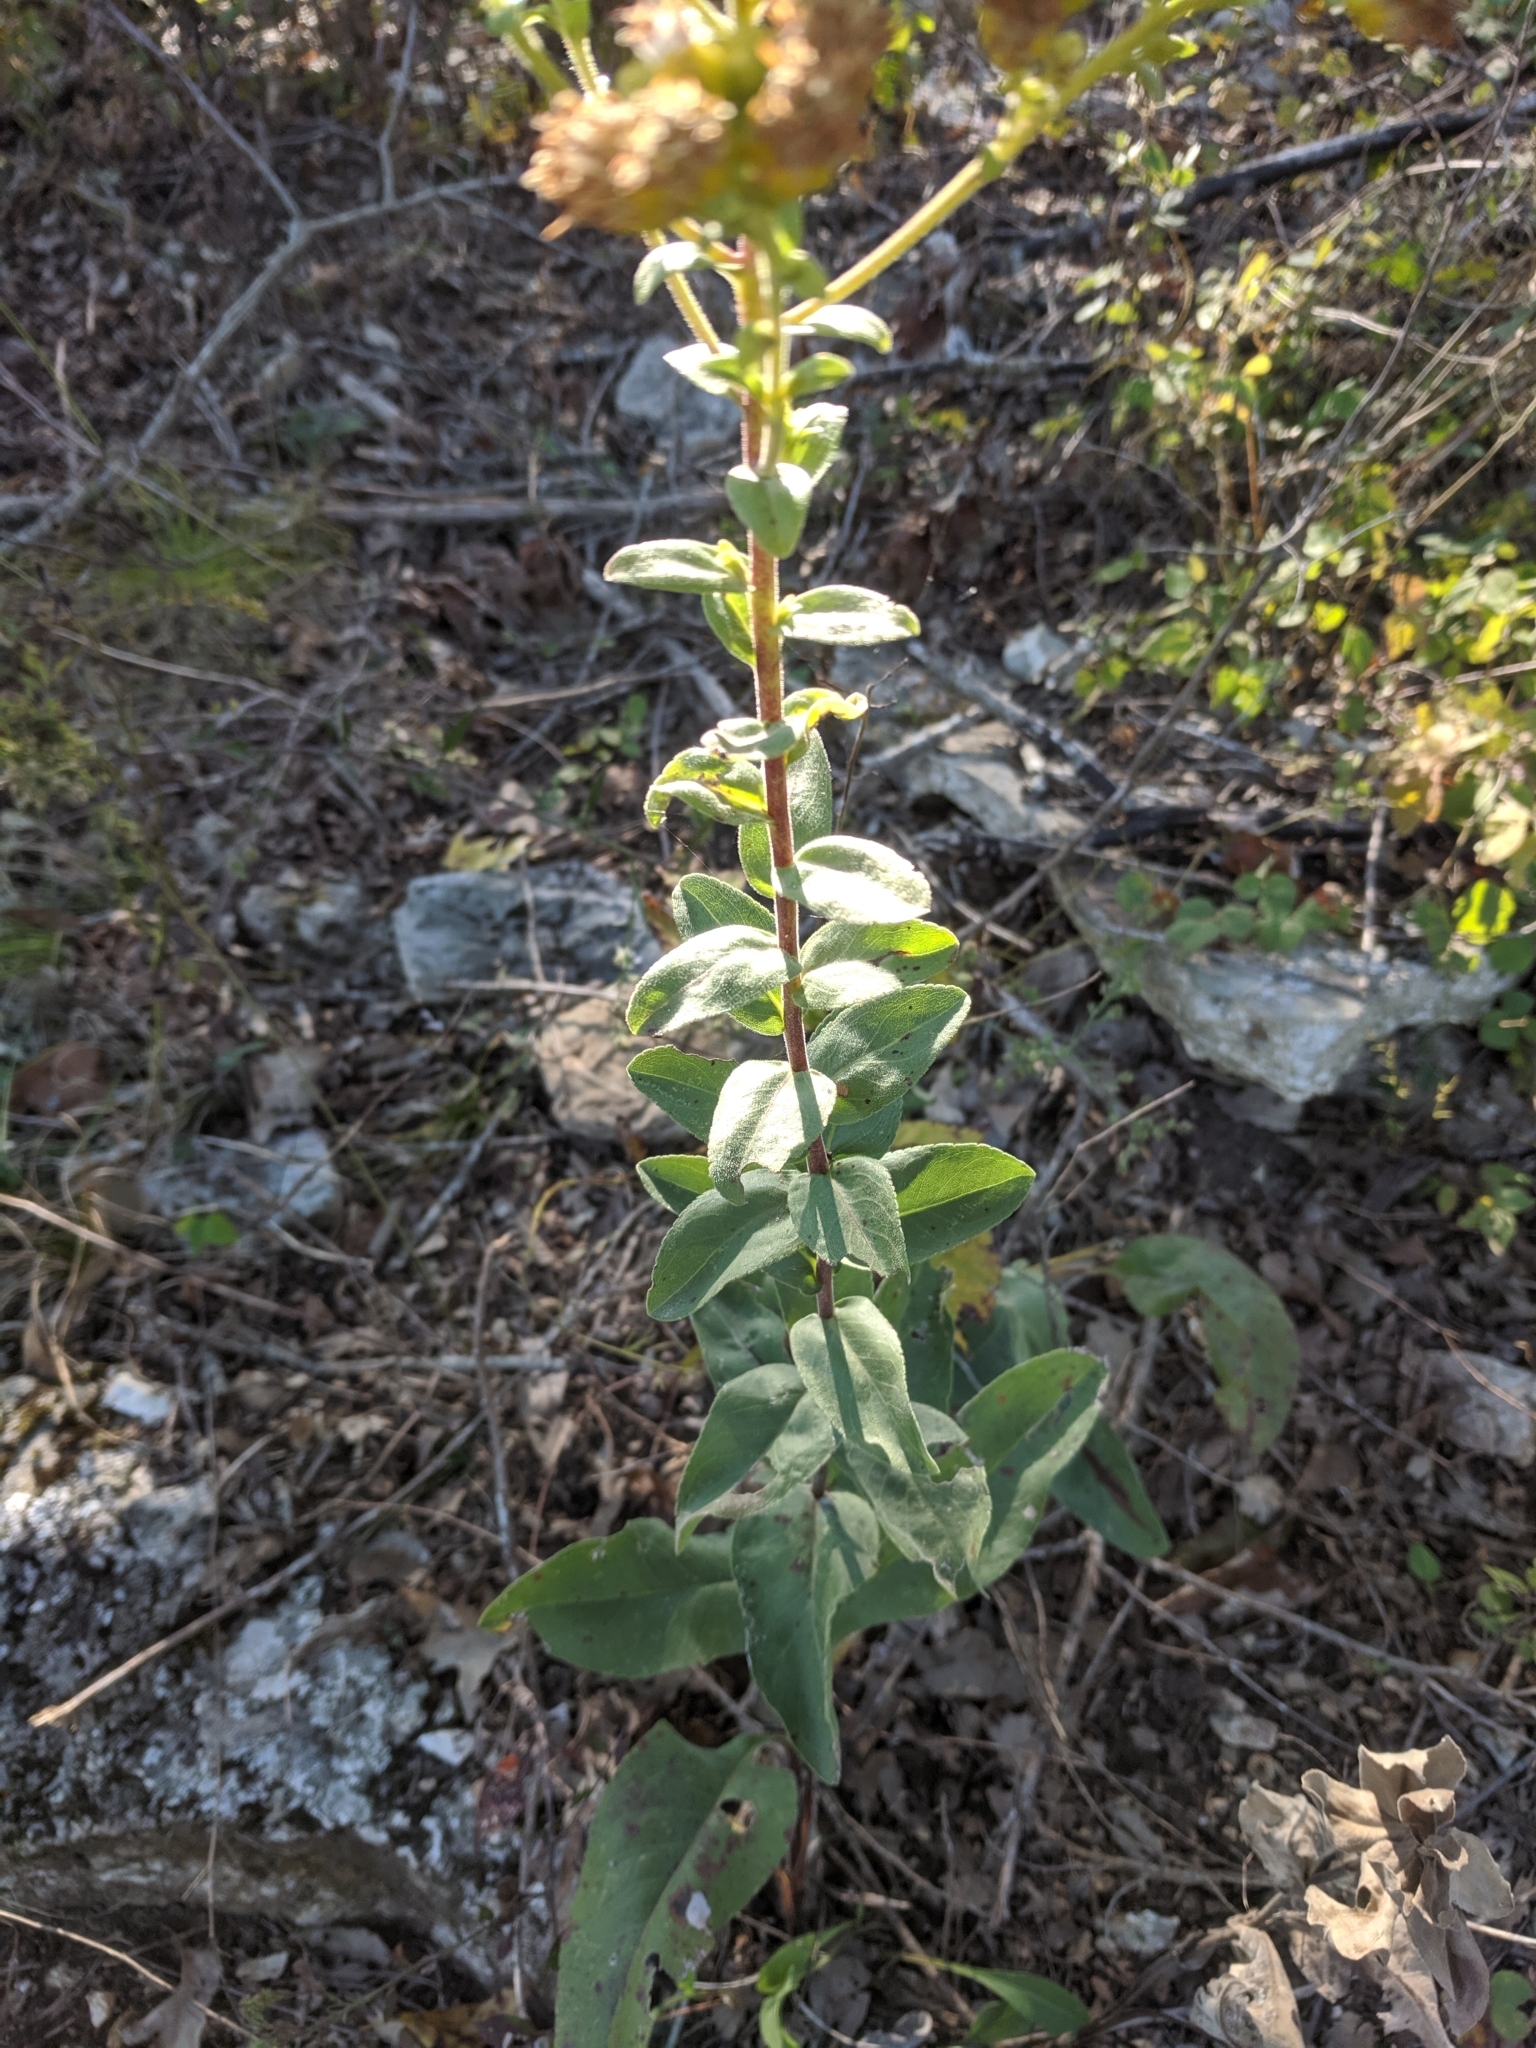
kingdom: Plantae
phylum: Tracheophyta
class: Magnoliopsida
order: Asterales
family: Asteraceae
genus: Solidago
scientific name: Solidago rigida
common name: Rigid goldenrod
